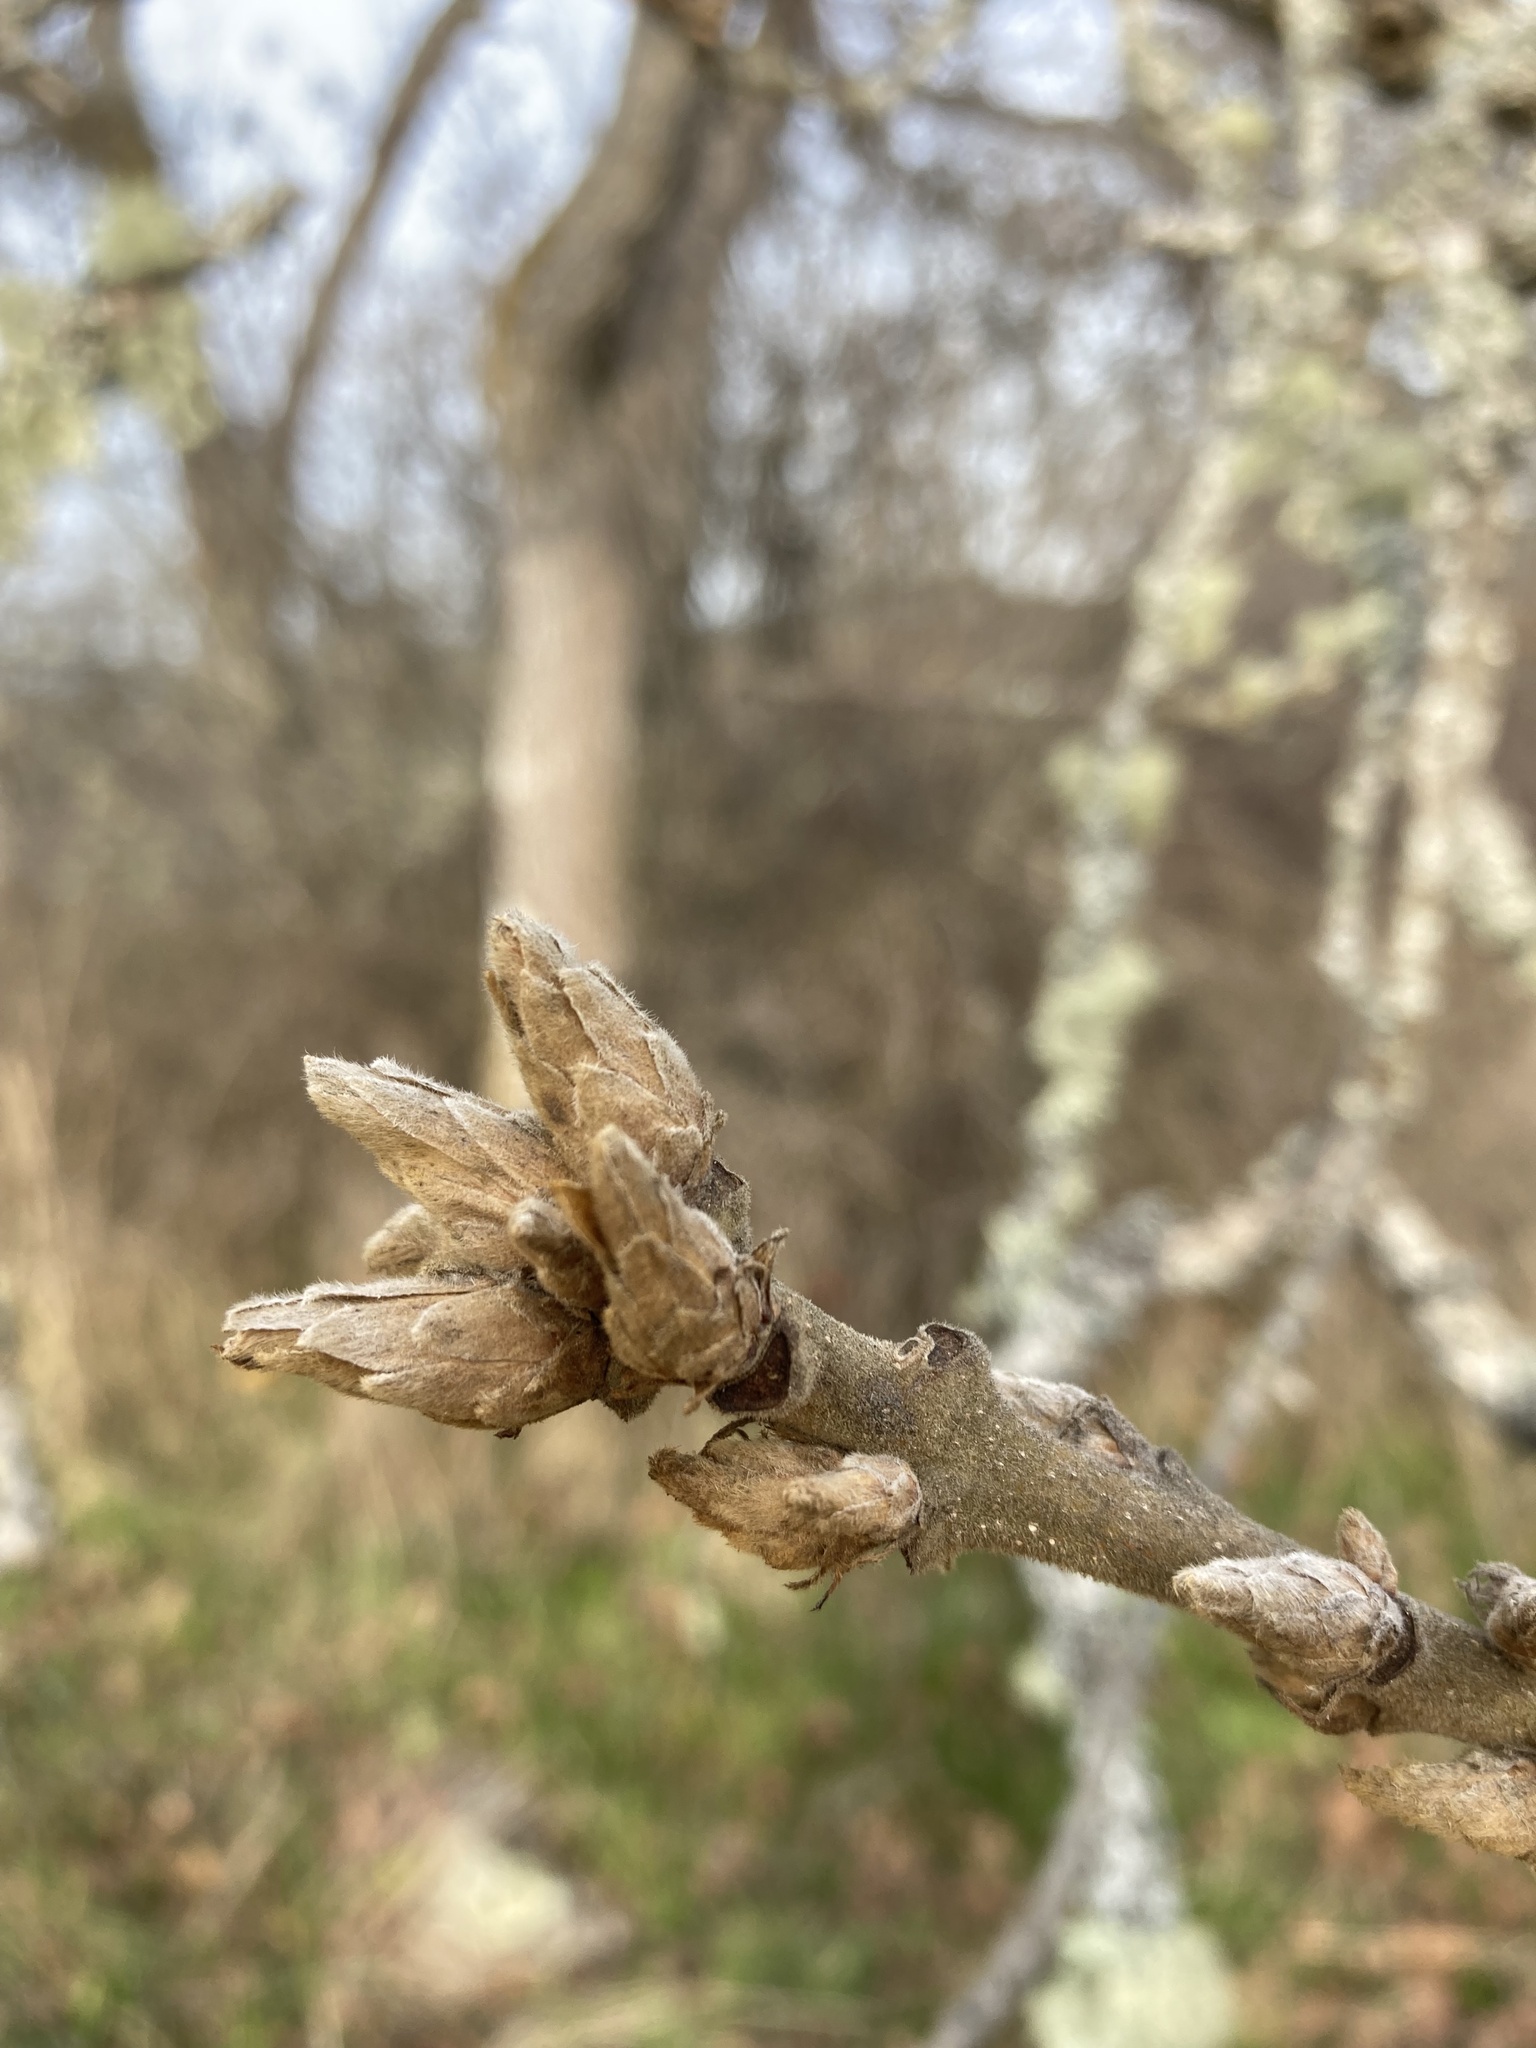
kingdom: Plantae
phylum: Tracheophyta
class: Magnoliopsida
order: Fagales
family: Fagaceae
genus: Quercus
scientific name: Quercus garryana
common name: Garry oak
